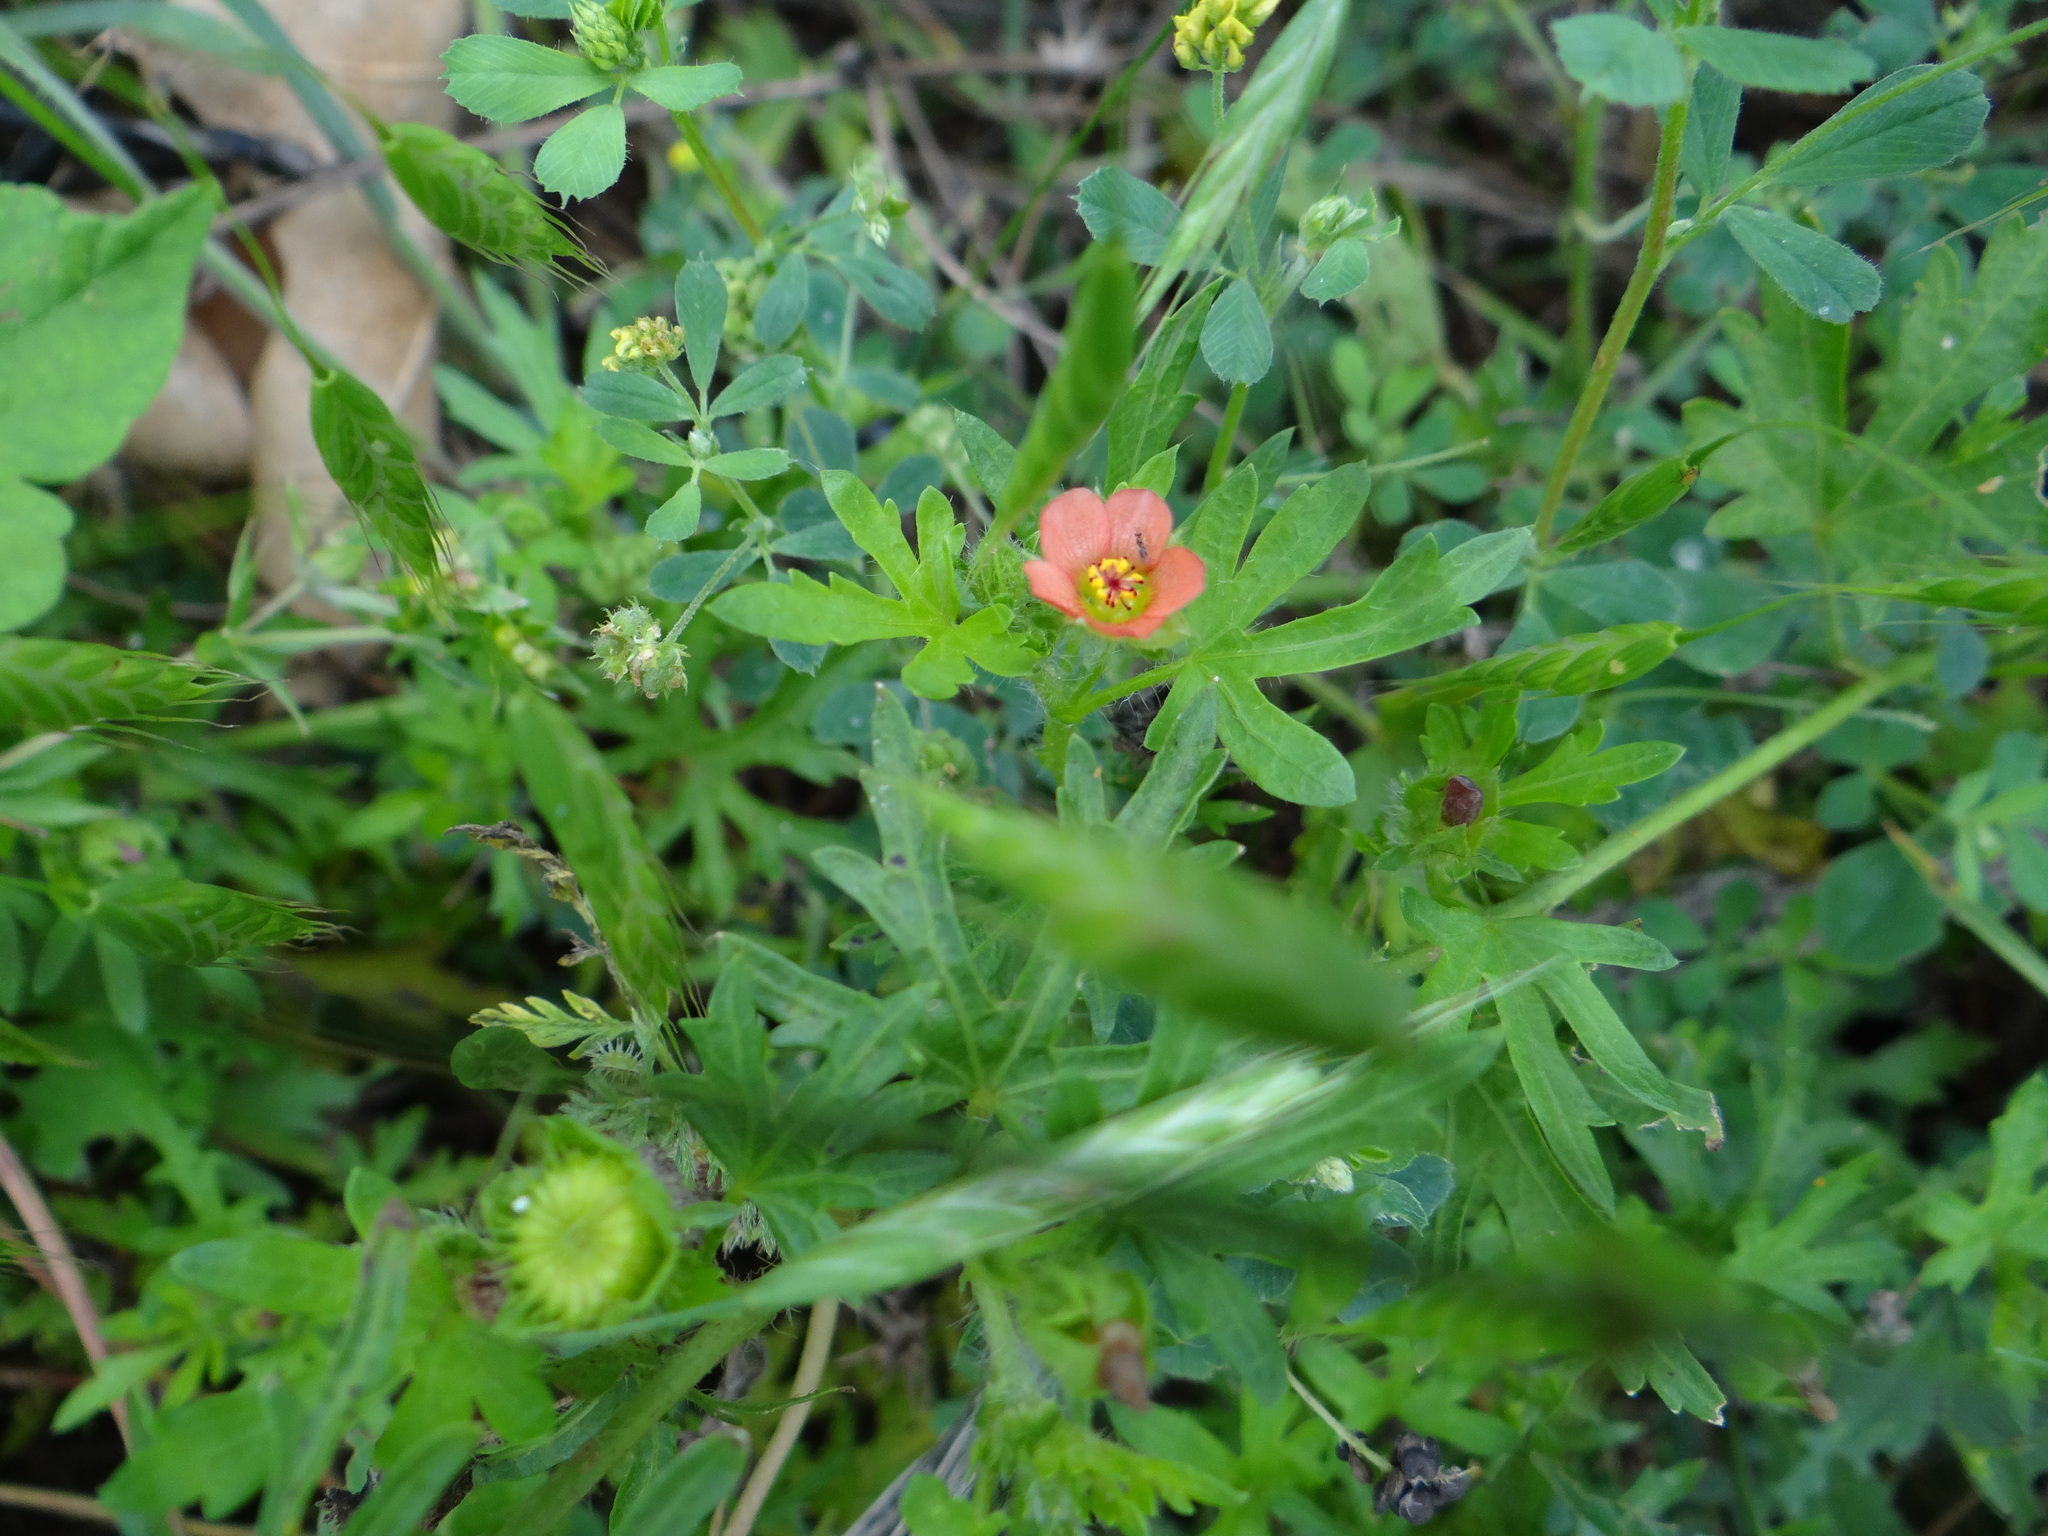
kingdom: Plantae
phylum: Tracheophyta
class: Magnoliopsida
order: Malvales
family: Malvaceae
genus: Modiola
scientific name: Modiola caroliniana
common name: Carolina bristlemallow
